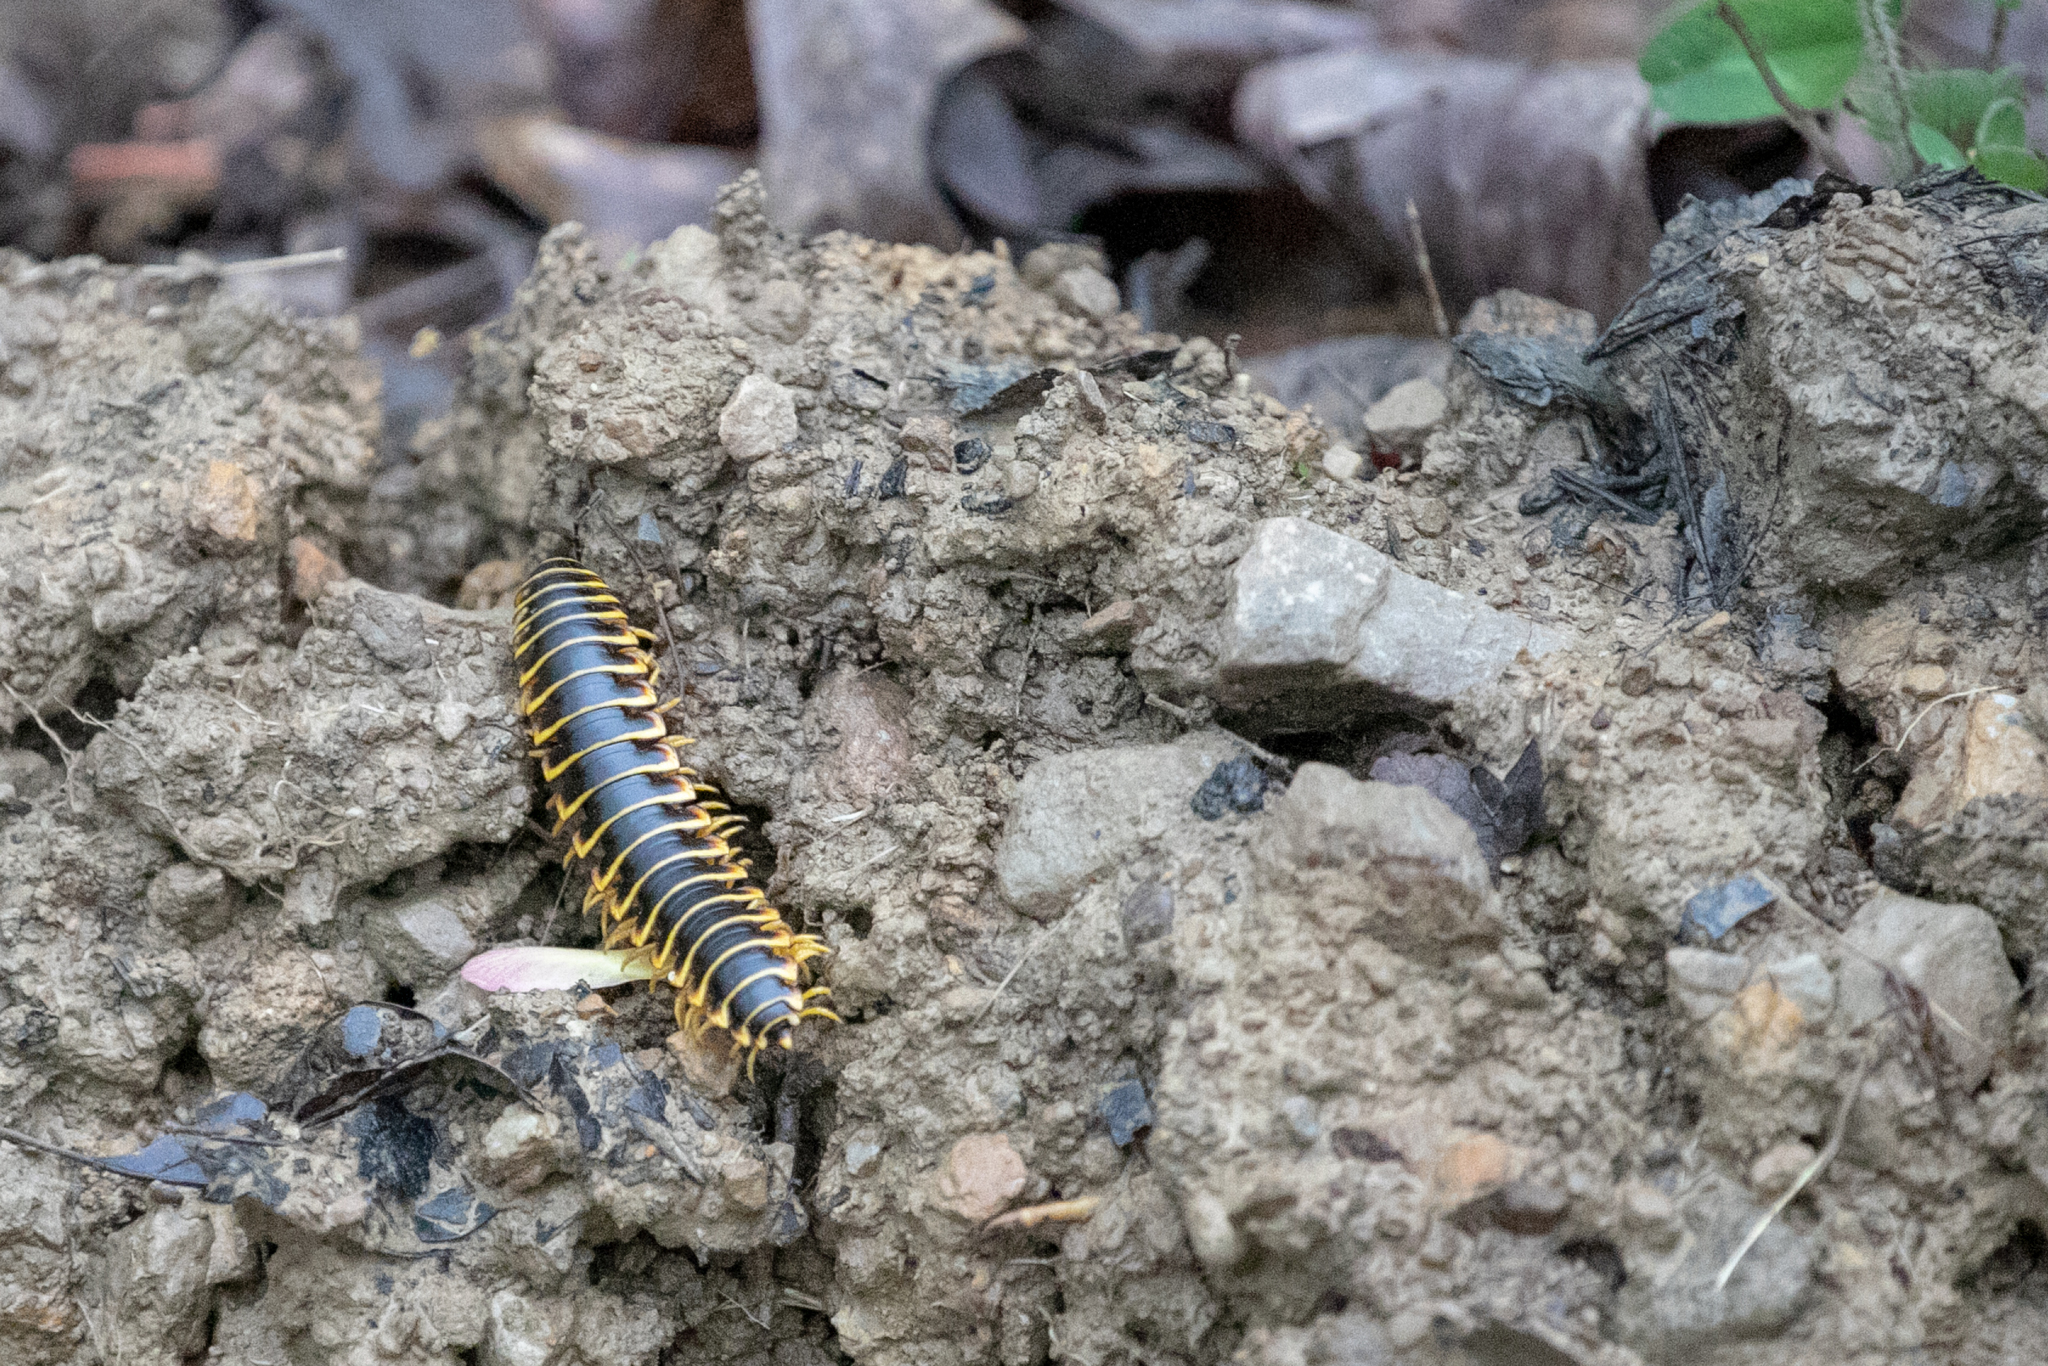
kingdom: Animalia
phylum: Arthropoda
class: Diplopoda
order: Polydesmida
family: Xystodesmidae
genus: Apheloria
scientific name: Apheloria virginiensis
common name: Black-and-gold flat millipede
